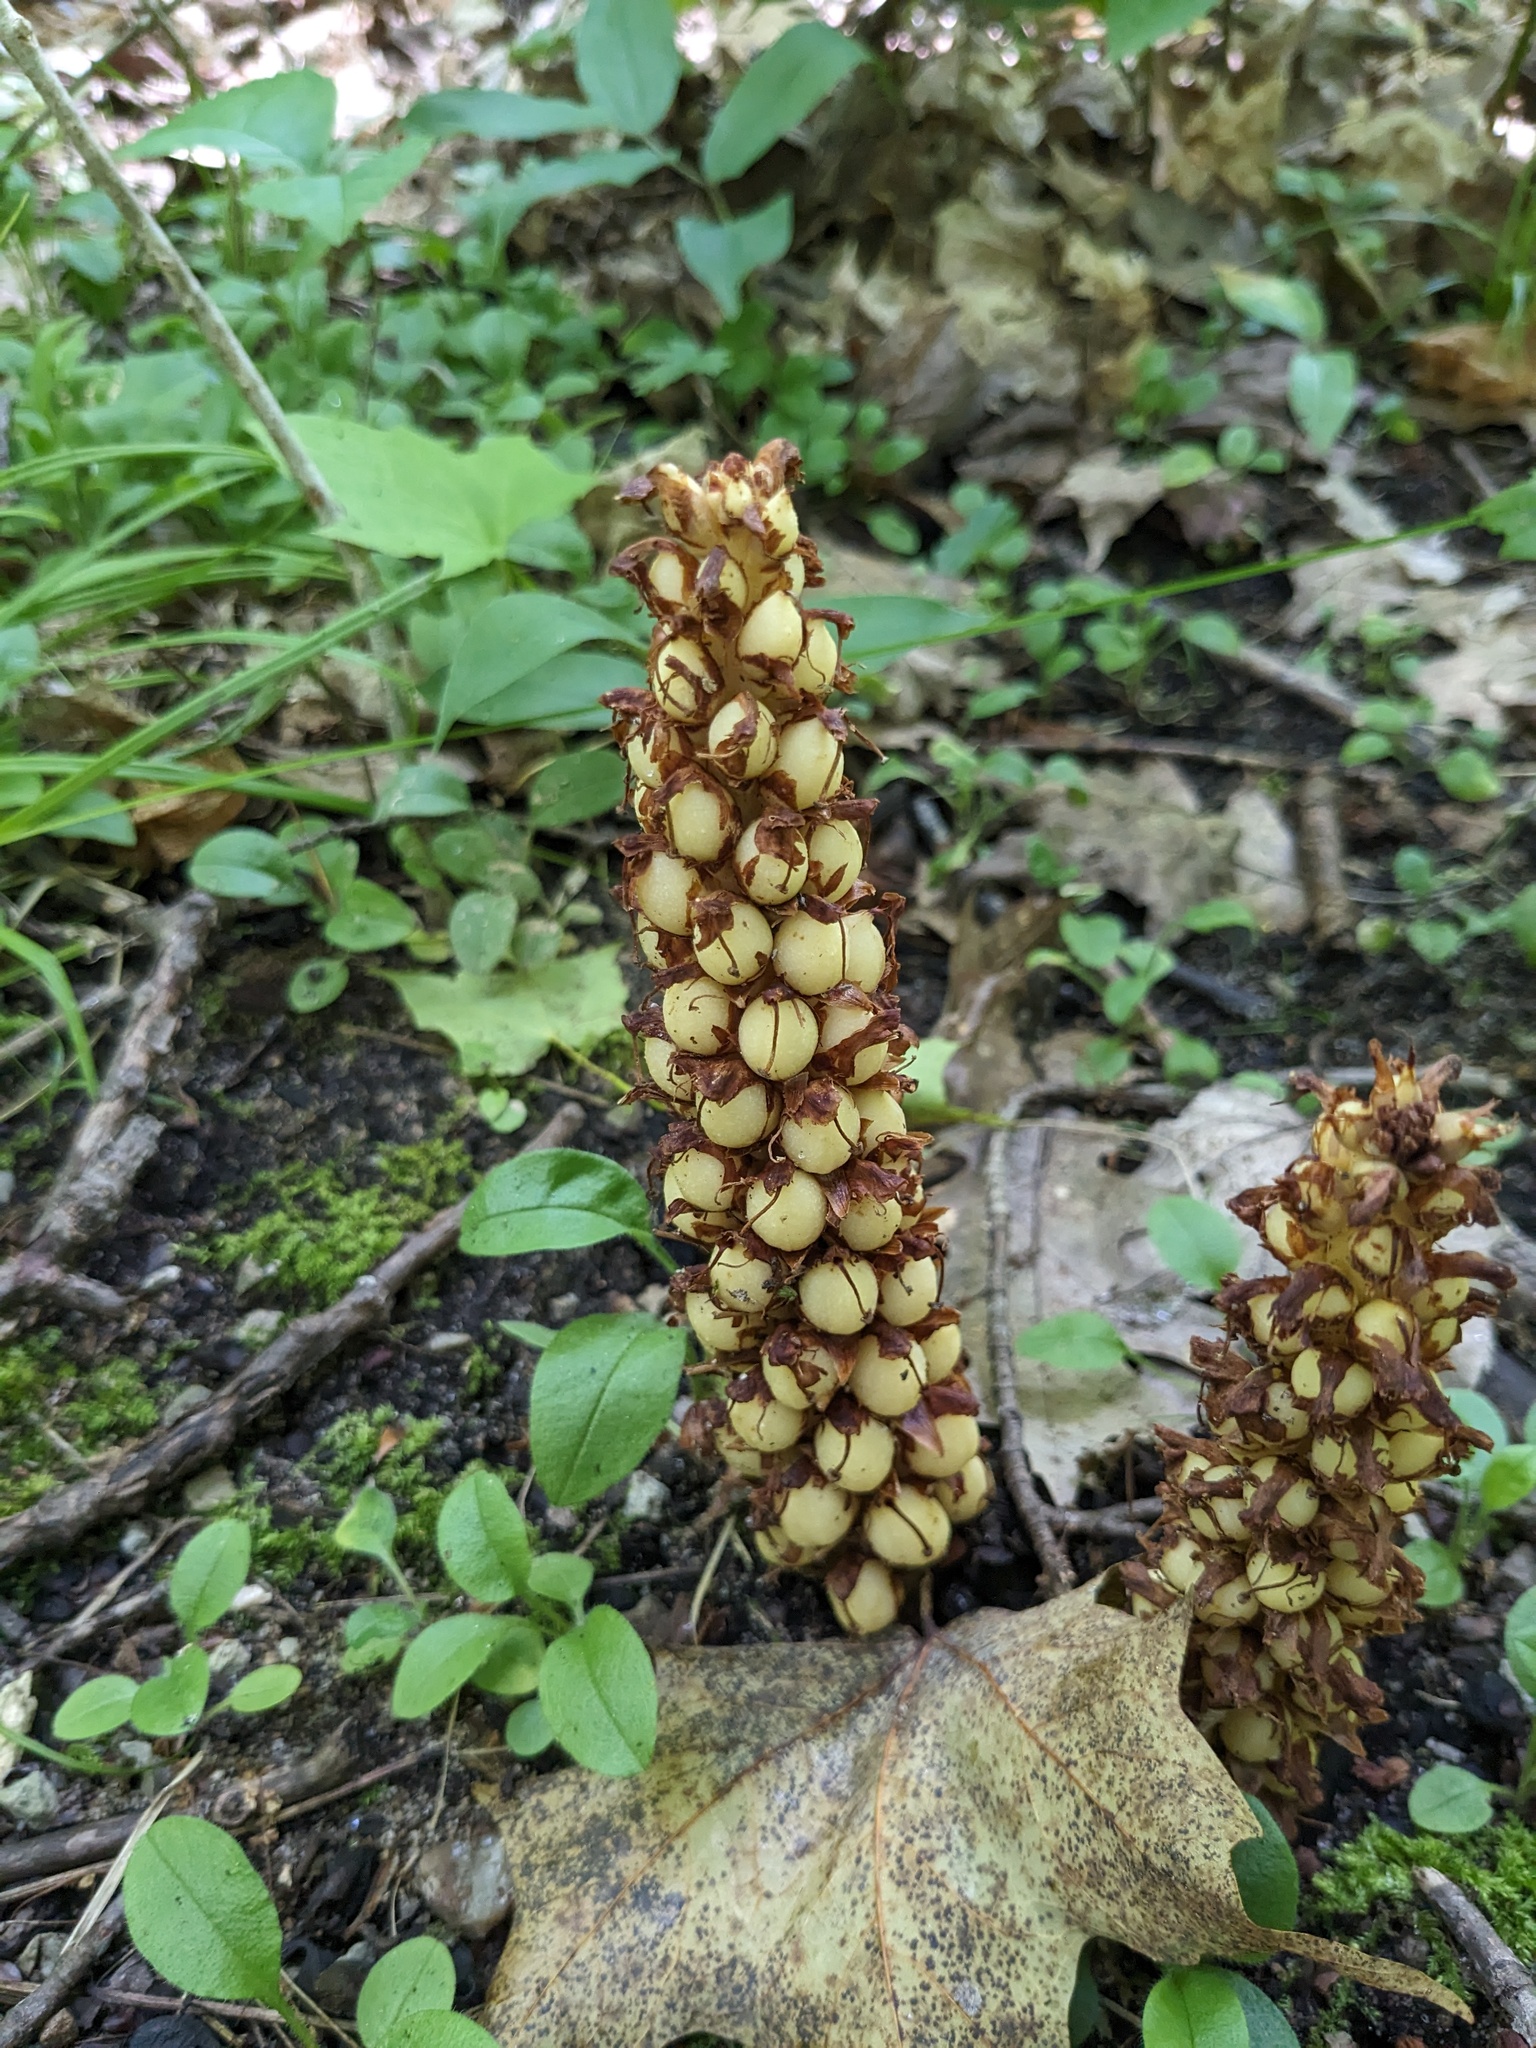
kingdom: Plantae
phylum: Tracheophyta
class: Magnoliopsida
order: Lamiales
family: Orobanchaceae
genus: Conopholis
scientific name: Conopholis americana
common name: American cancer-root
